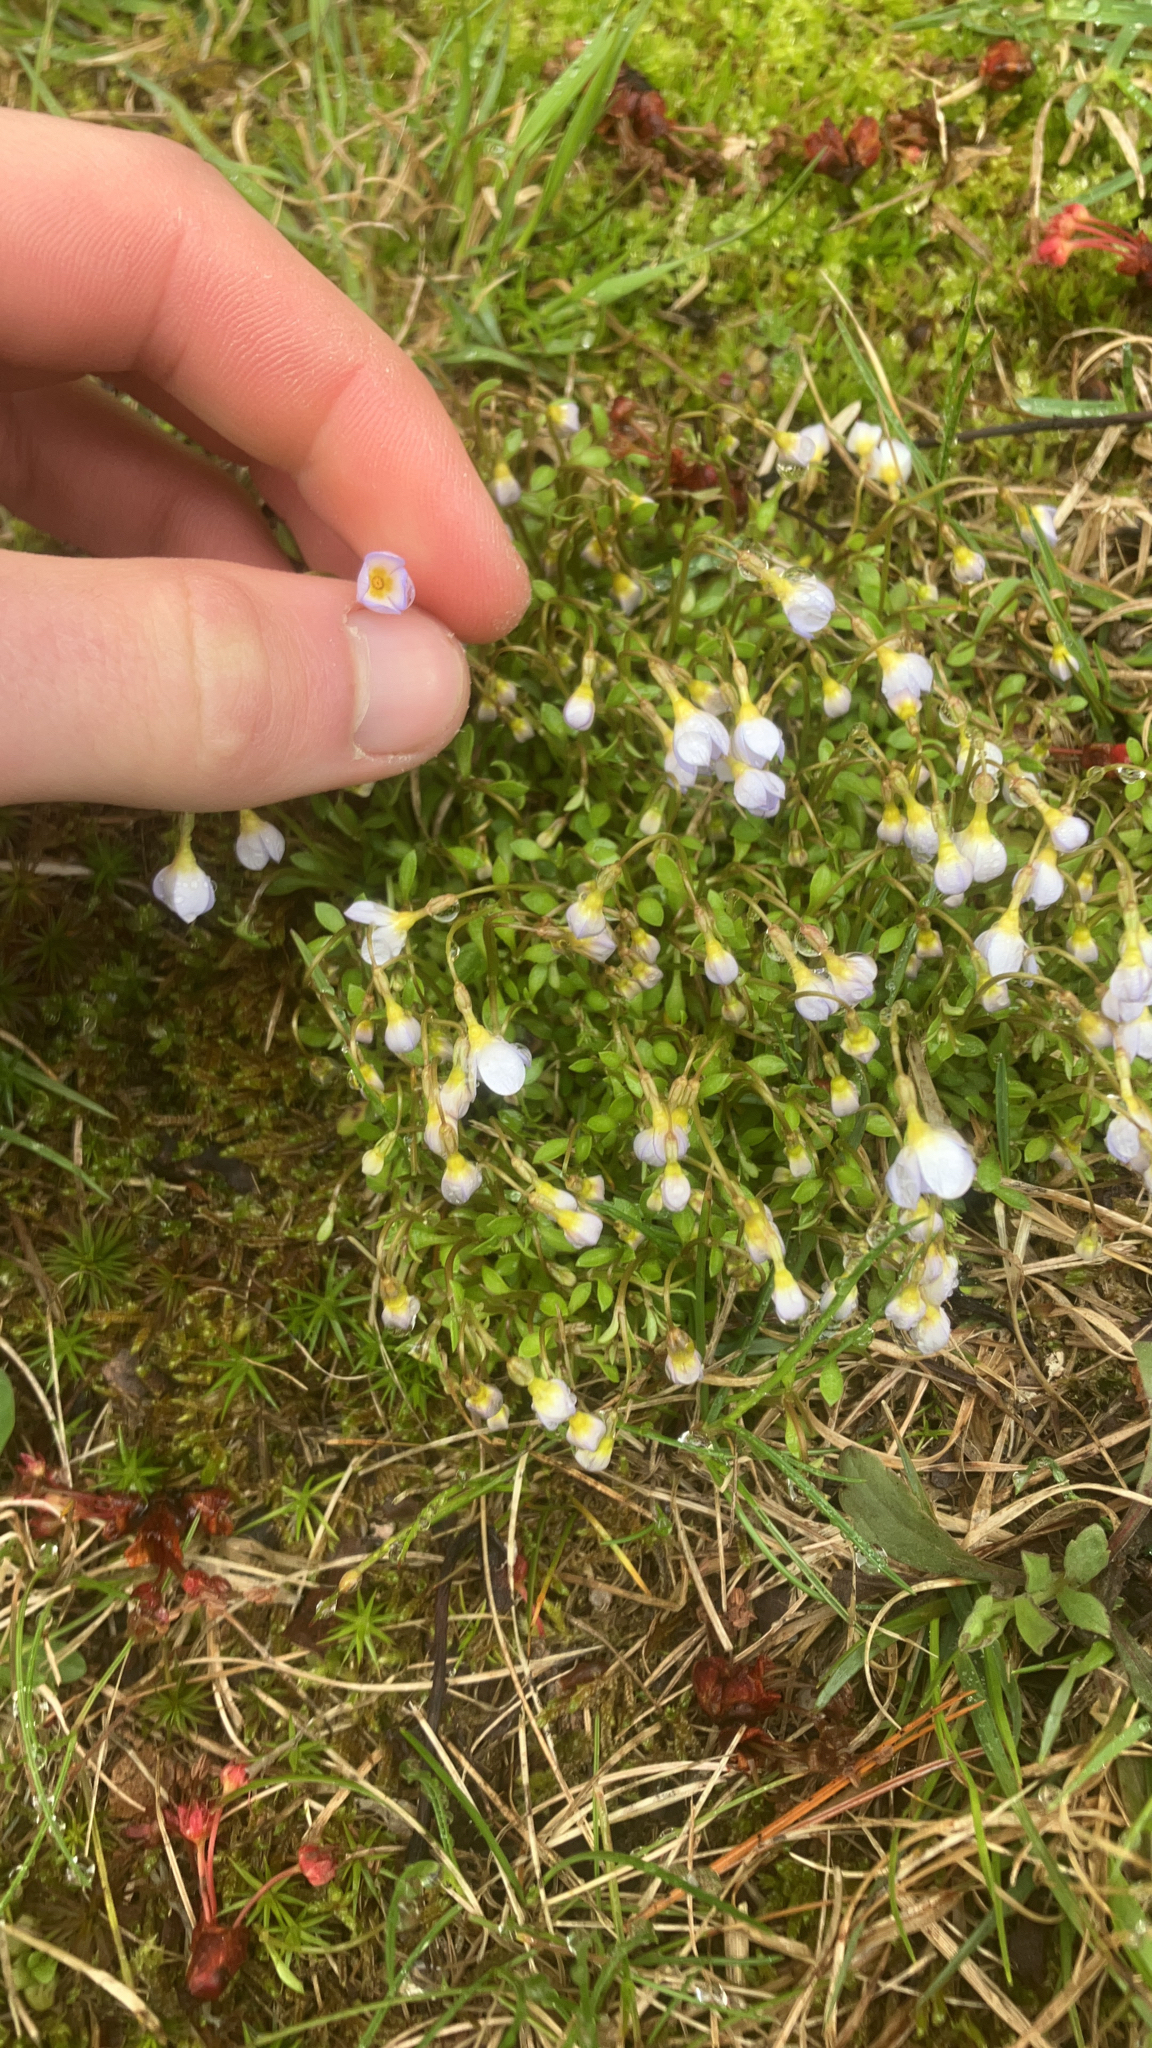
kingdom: Plantae
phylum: Tracheophyta
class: Magnoliopsida
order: Gentianales
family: Rubiaceae
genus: Houstonia
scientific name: Houstonia caerulea
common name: Bluets
